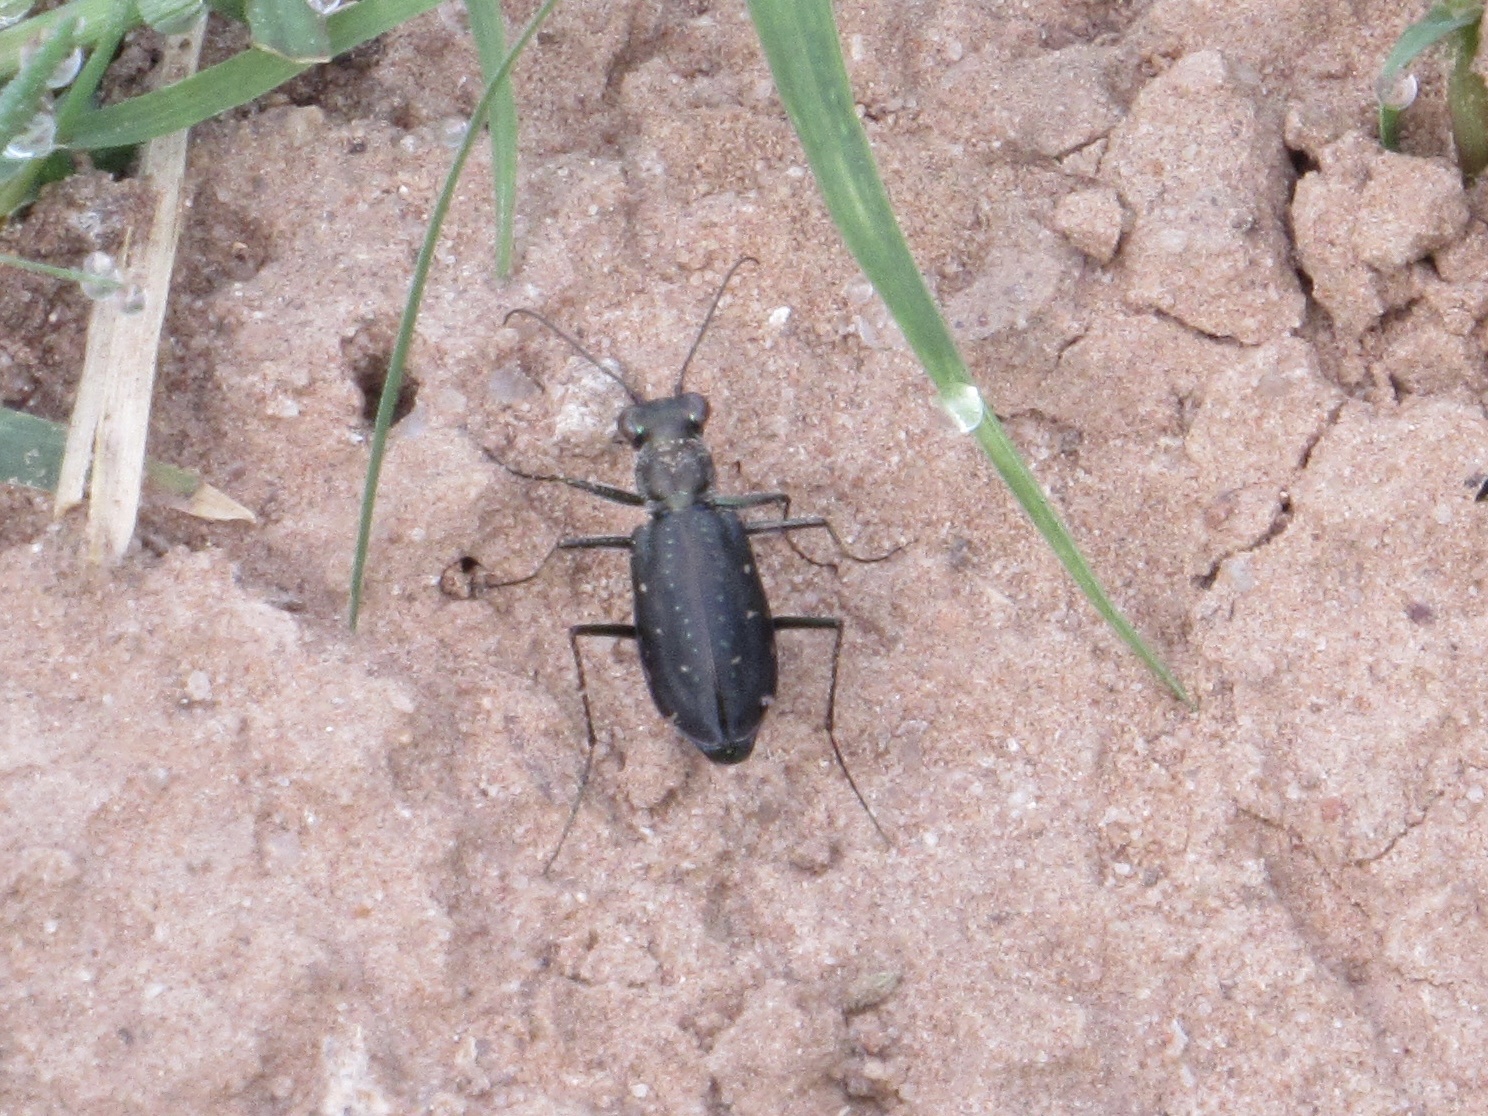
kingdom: Animalia
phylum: Arthropoda
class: Insecta
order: Coleoptera
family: Carabidae
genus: Cicindela
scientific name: Cicindela punctulata
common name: Punctured tiger beetle
